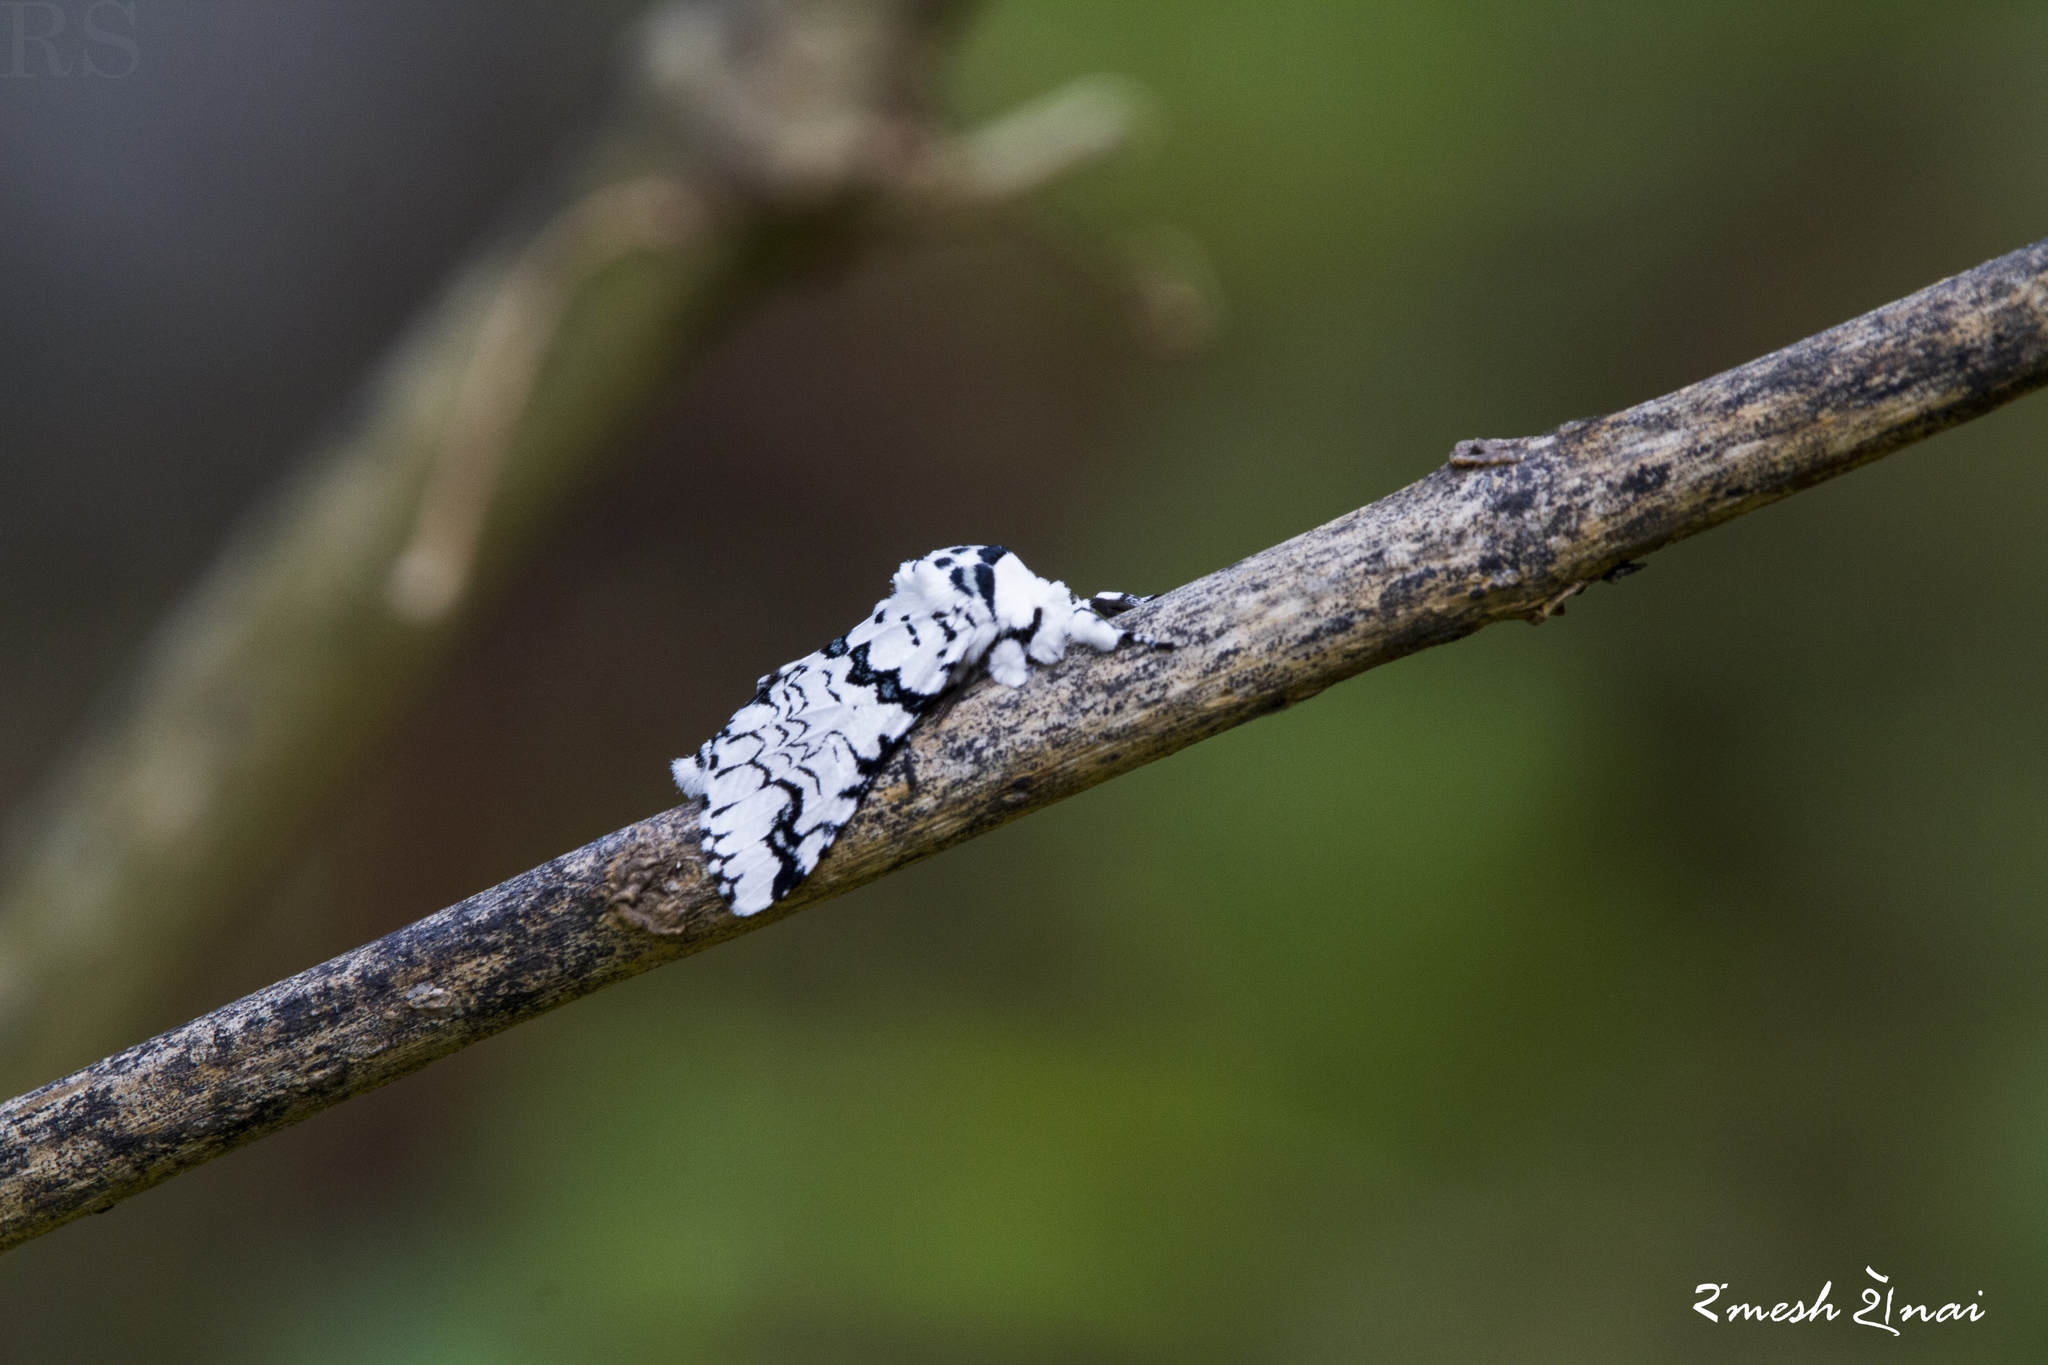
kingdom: Animalia
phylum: Arthropoda
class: Insecta
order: Lepidoptera
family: Notodontidae
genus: Neocerura
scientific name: Neocerura liturata
